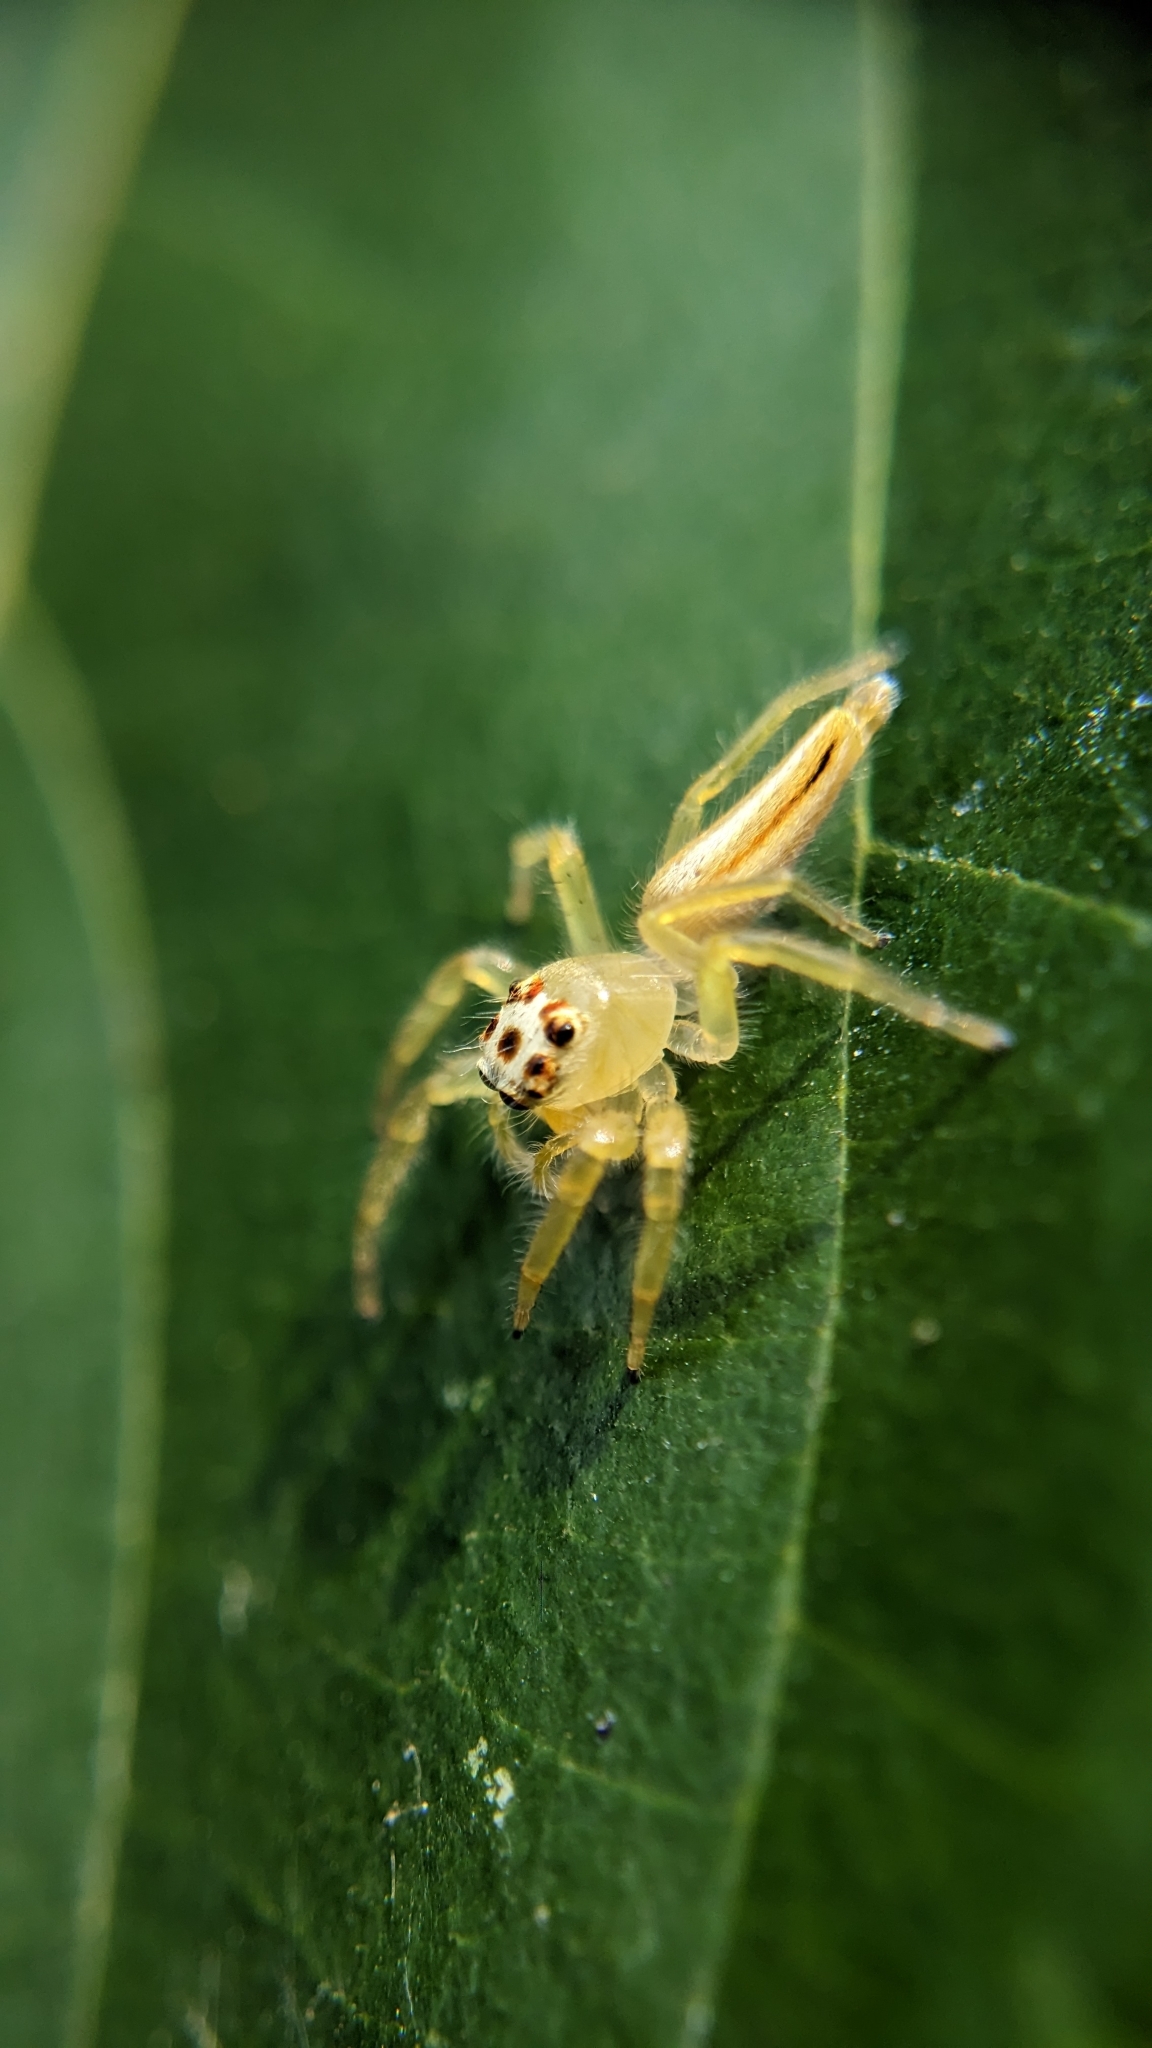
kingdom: Animalia
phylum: Arthropoda
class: Arachnida
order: Araneae
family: Salticidae
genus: Telamonia
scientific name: Telamonia dimidiata
